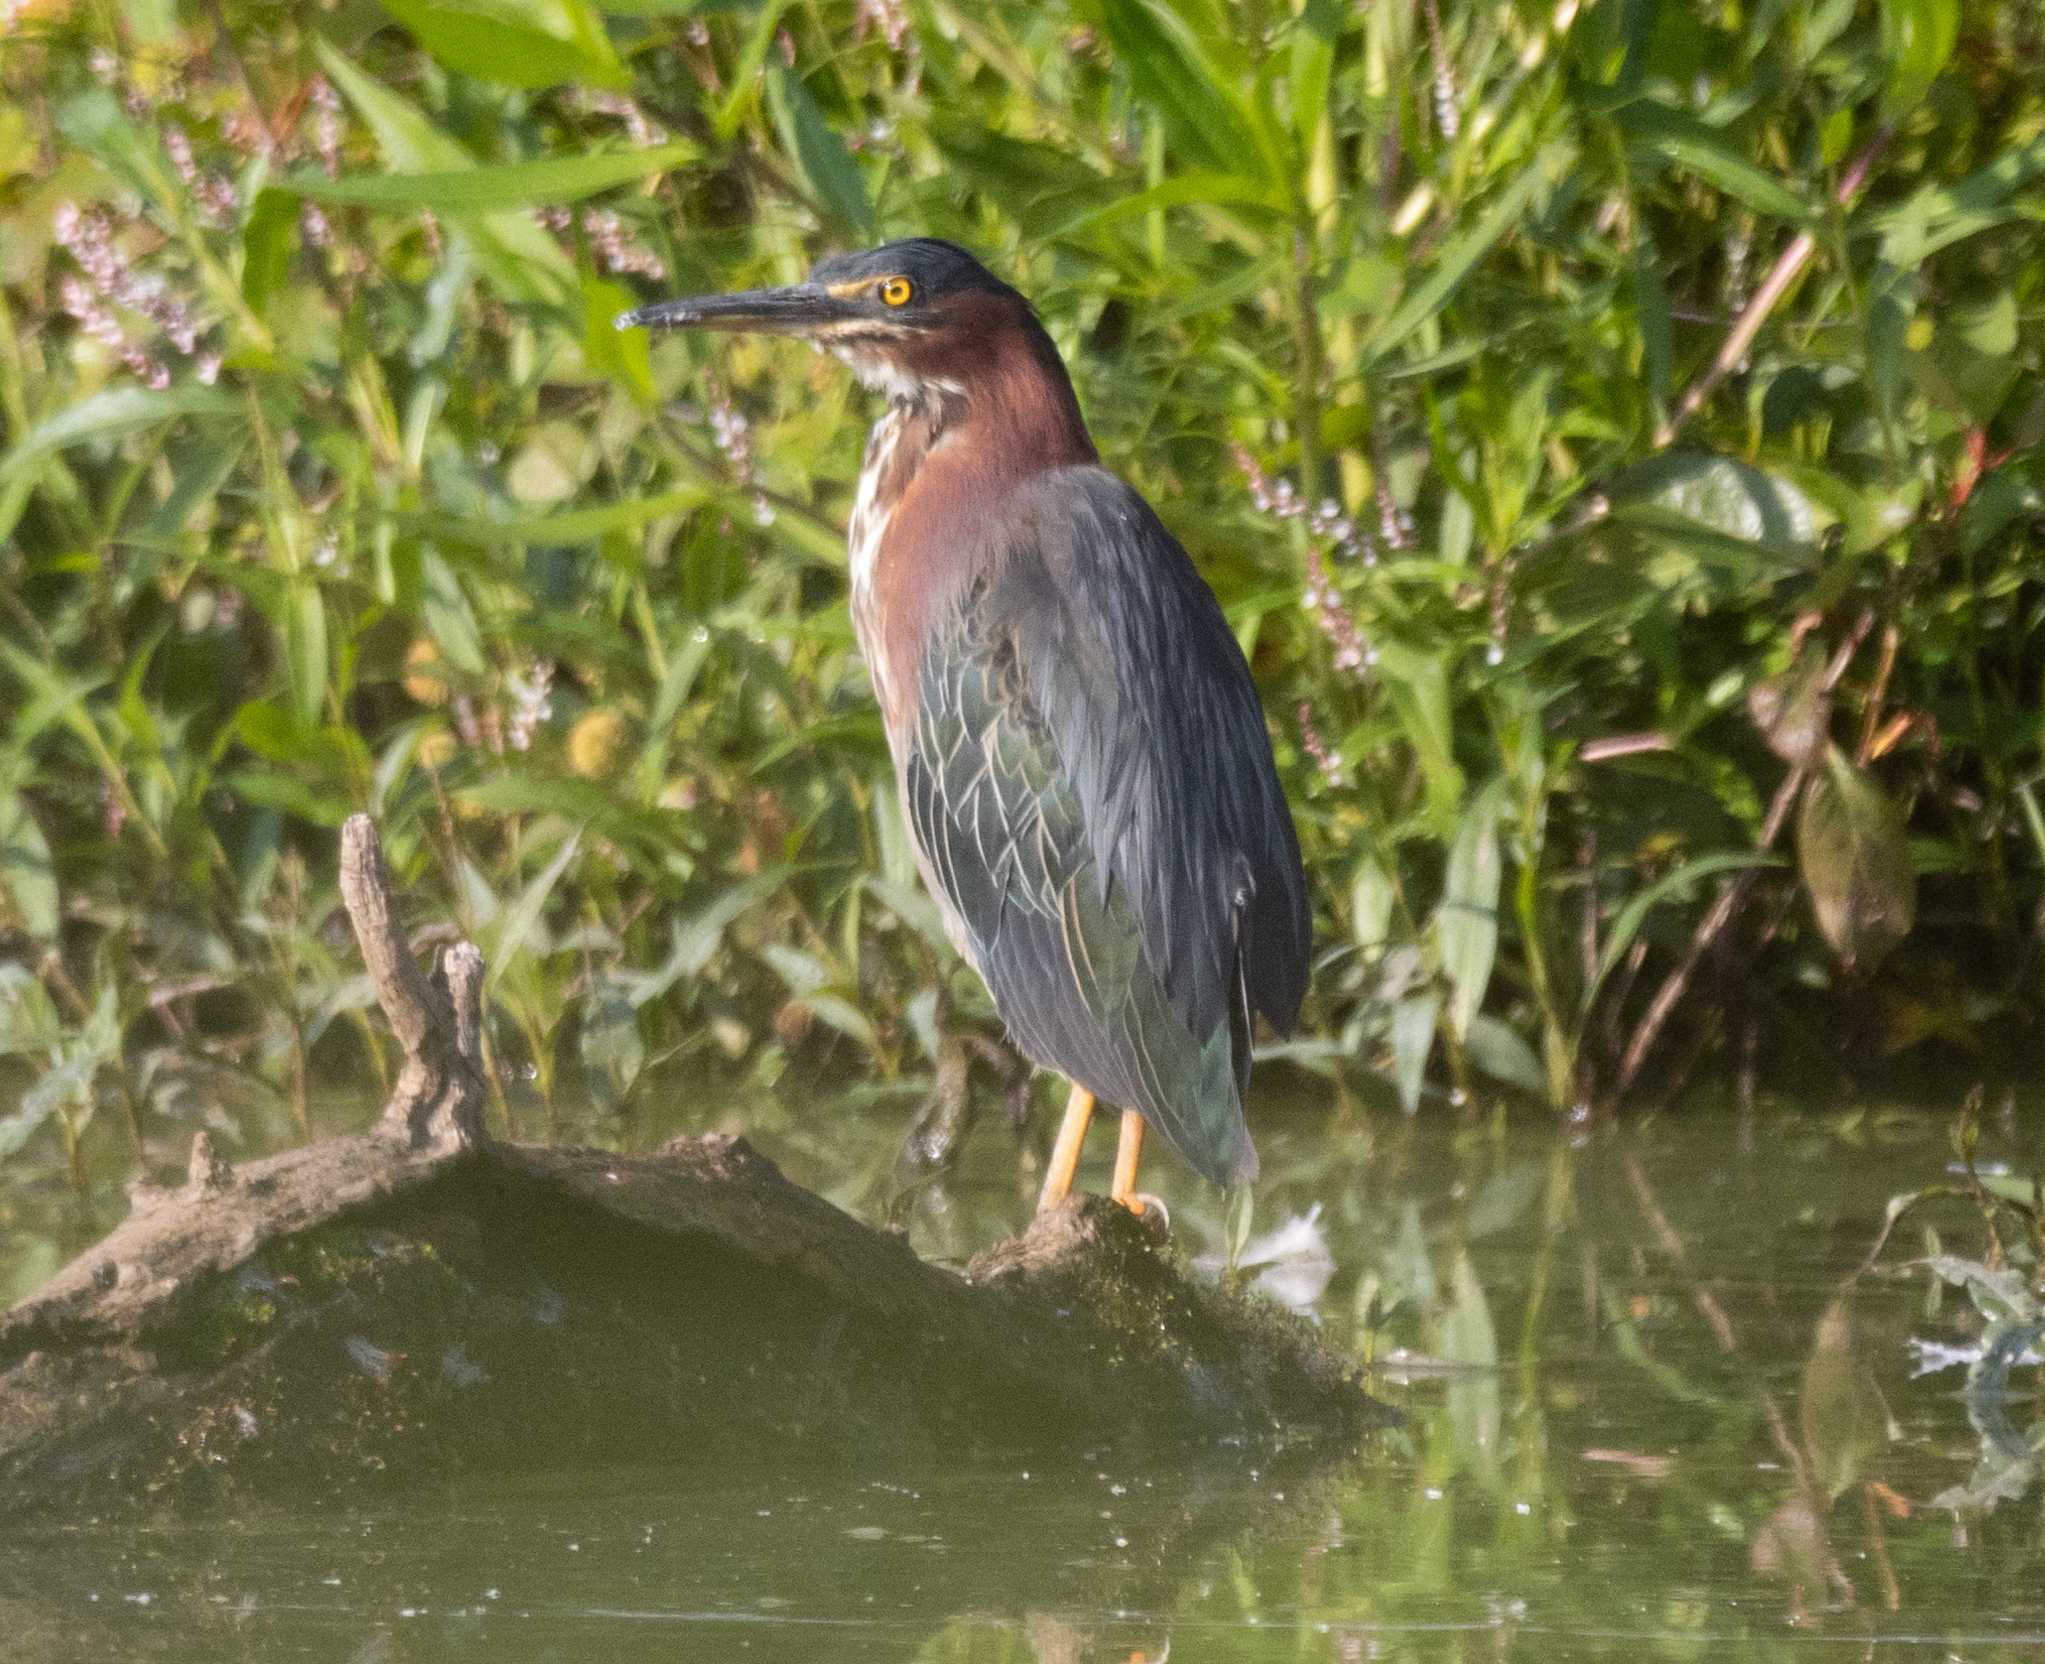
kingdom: Animalia
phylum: Chordata
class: Aves
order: Pelecaniformes
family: Ardeidae
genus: Butorides
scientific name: Butorides virescens
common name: Green heron
